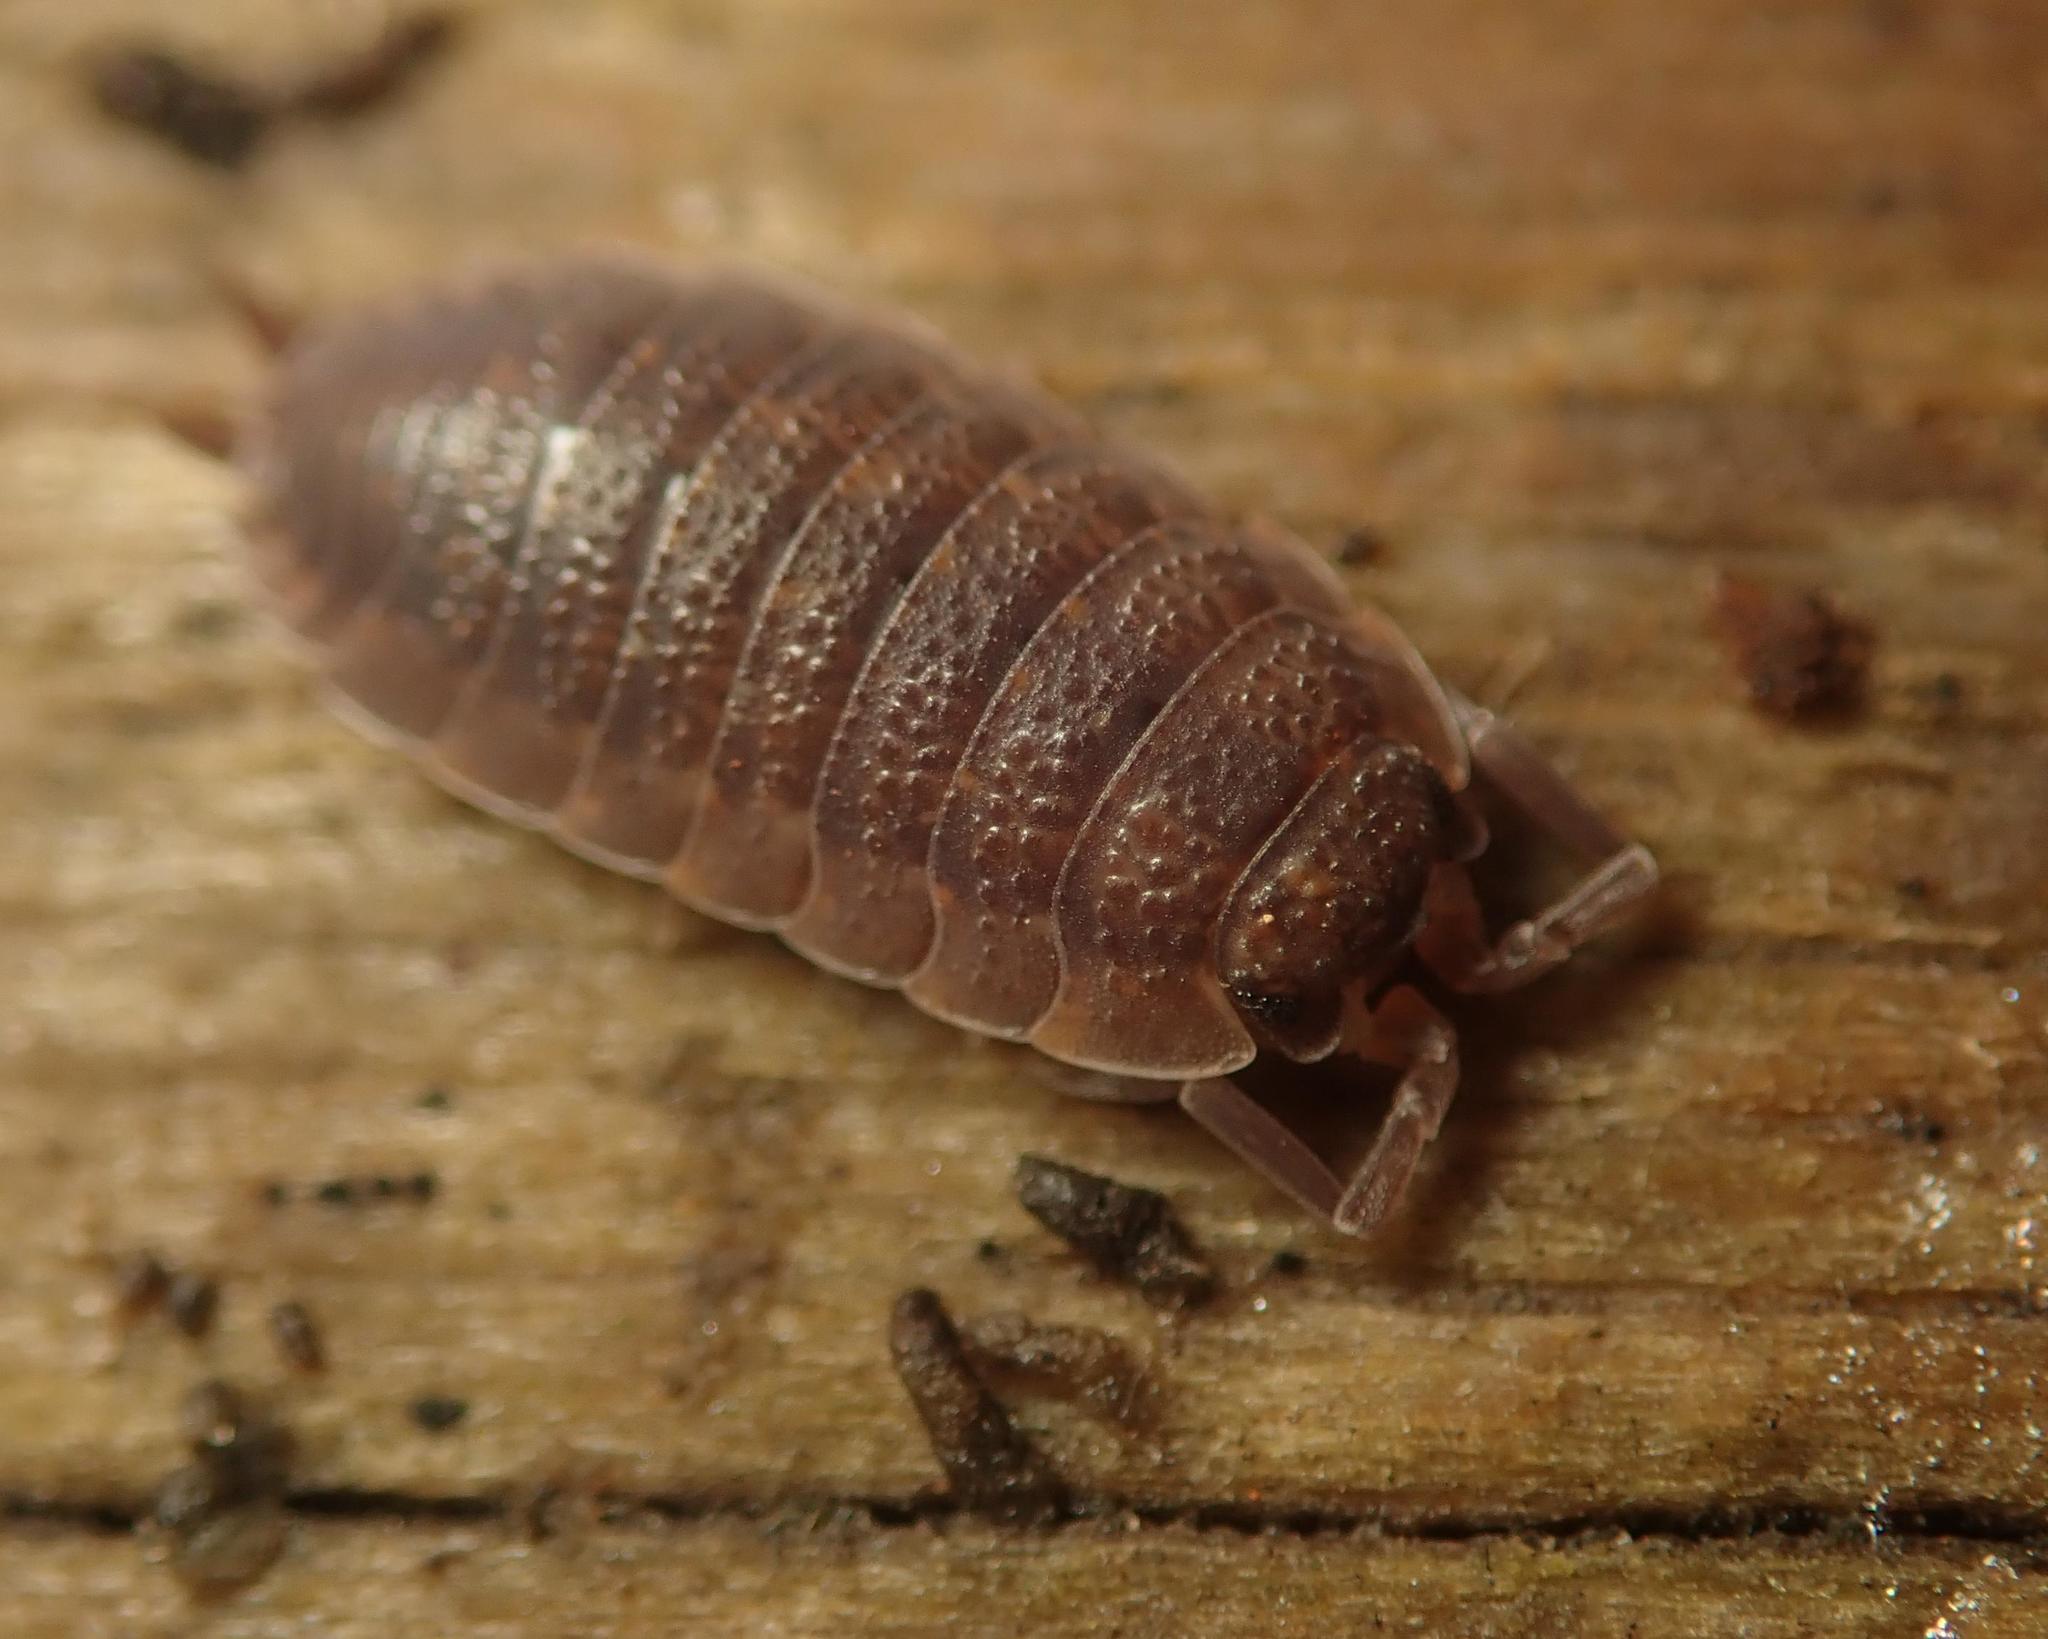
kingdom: Animalia
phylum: Arthropoda
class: Malacostraca
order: Isopoda
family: Porcellionidae
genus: Porcellio
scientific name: Porcellio scaber
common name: Common rough woodlouse
